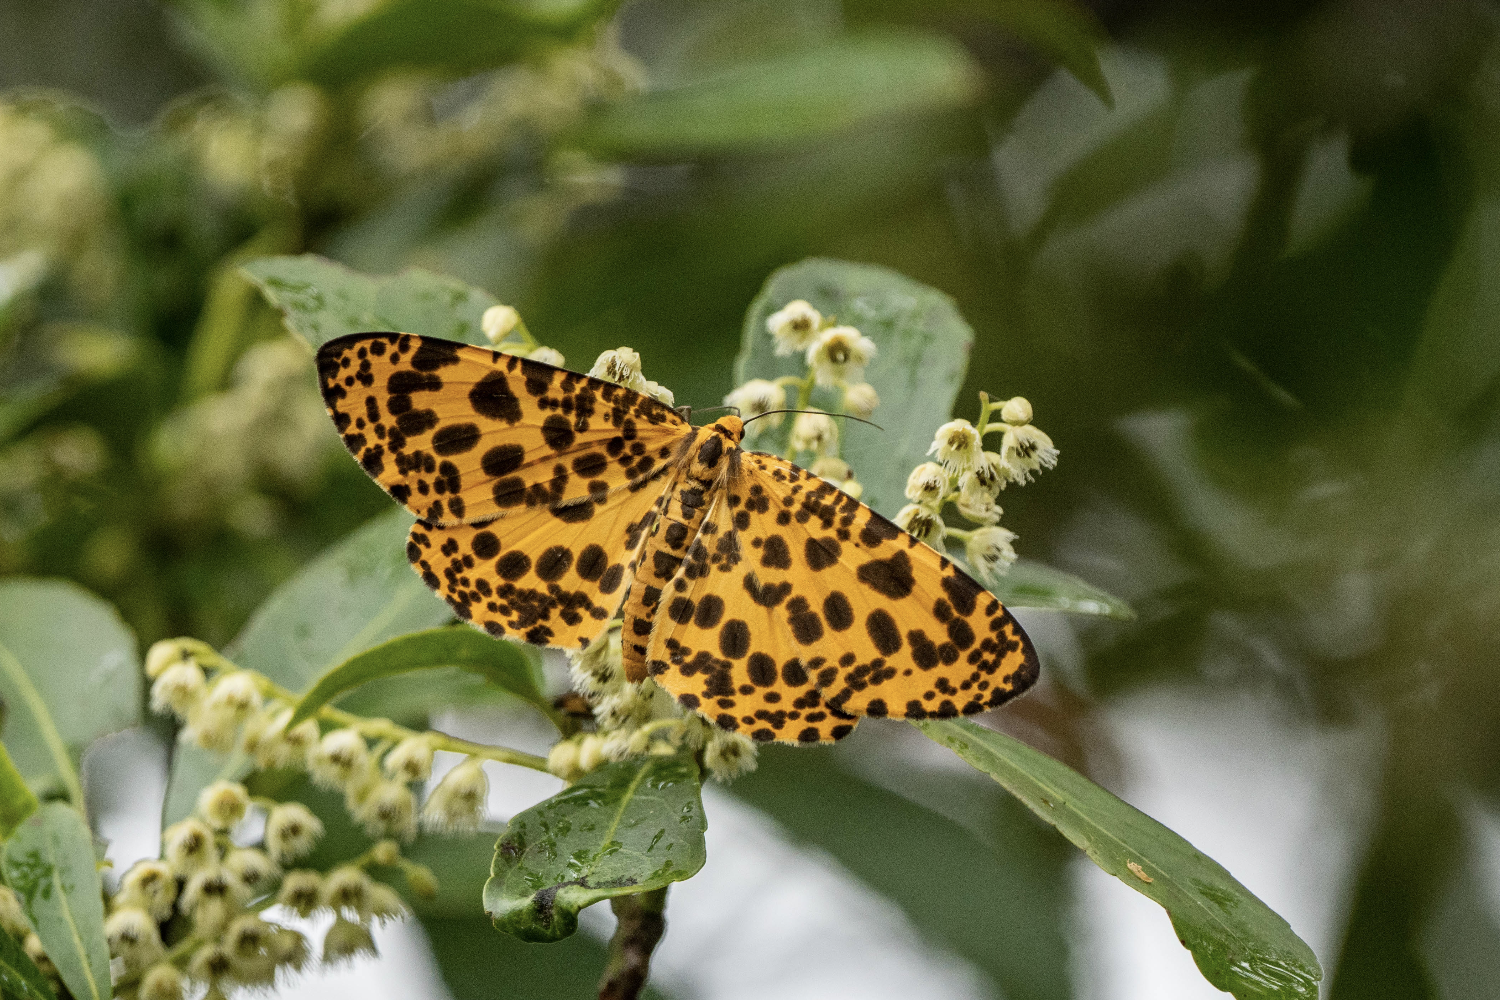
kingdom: Animalia
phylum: Arthropoda
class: Insecta
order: Lepidoptera
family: Geometridae
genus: Obeidia
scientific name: Obeidia Epobeidia tigrata
